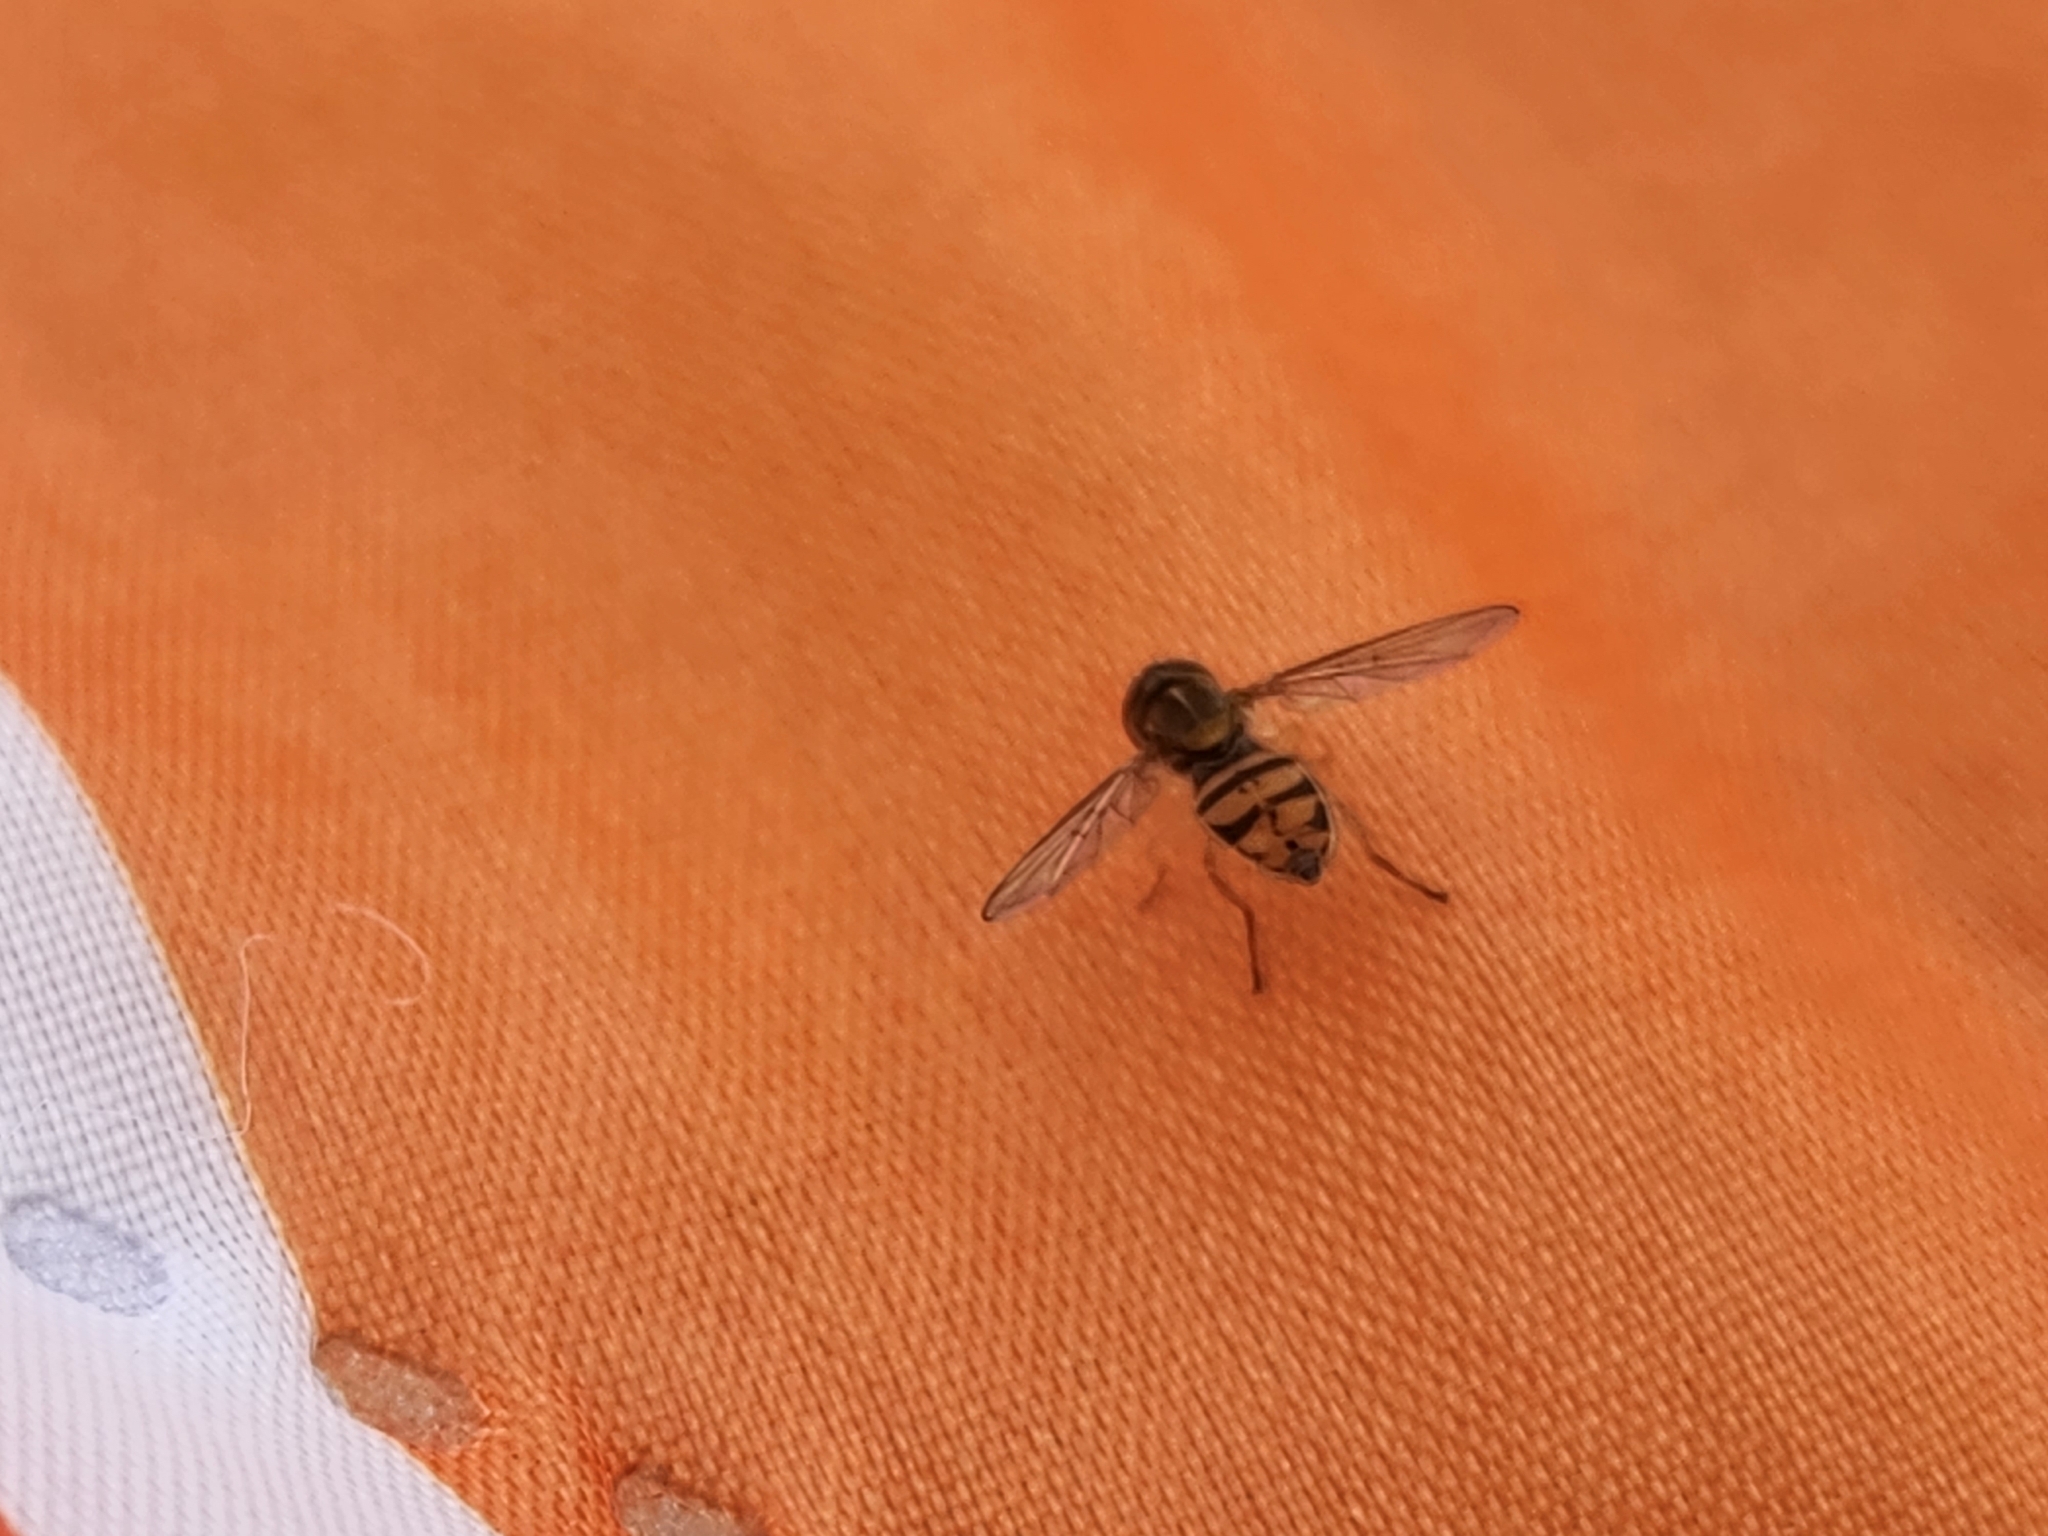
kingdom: Animalia
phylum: Arthropoda
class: Insecta
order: Diptera
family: Syrphidae
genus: Toxomerus
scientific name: Toxomerus marginatus
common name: Syrphid fly
